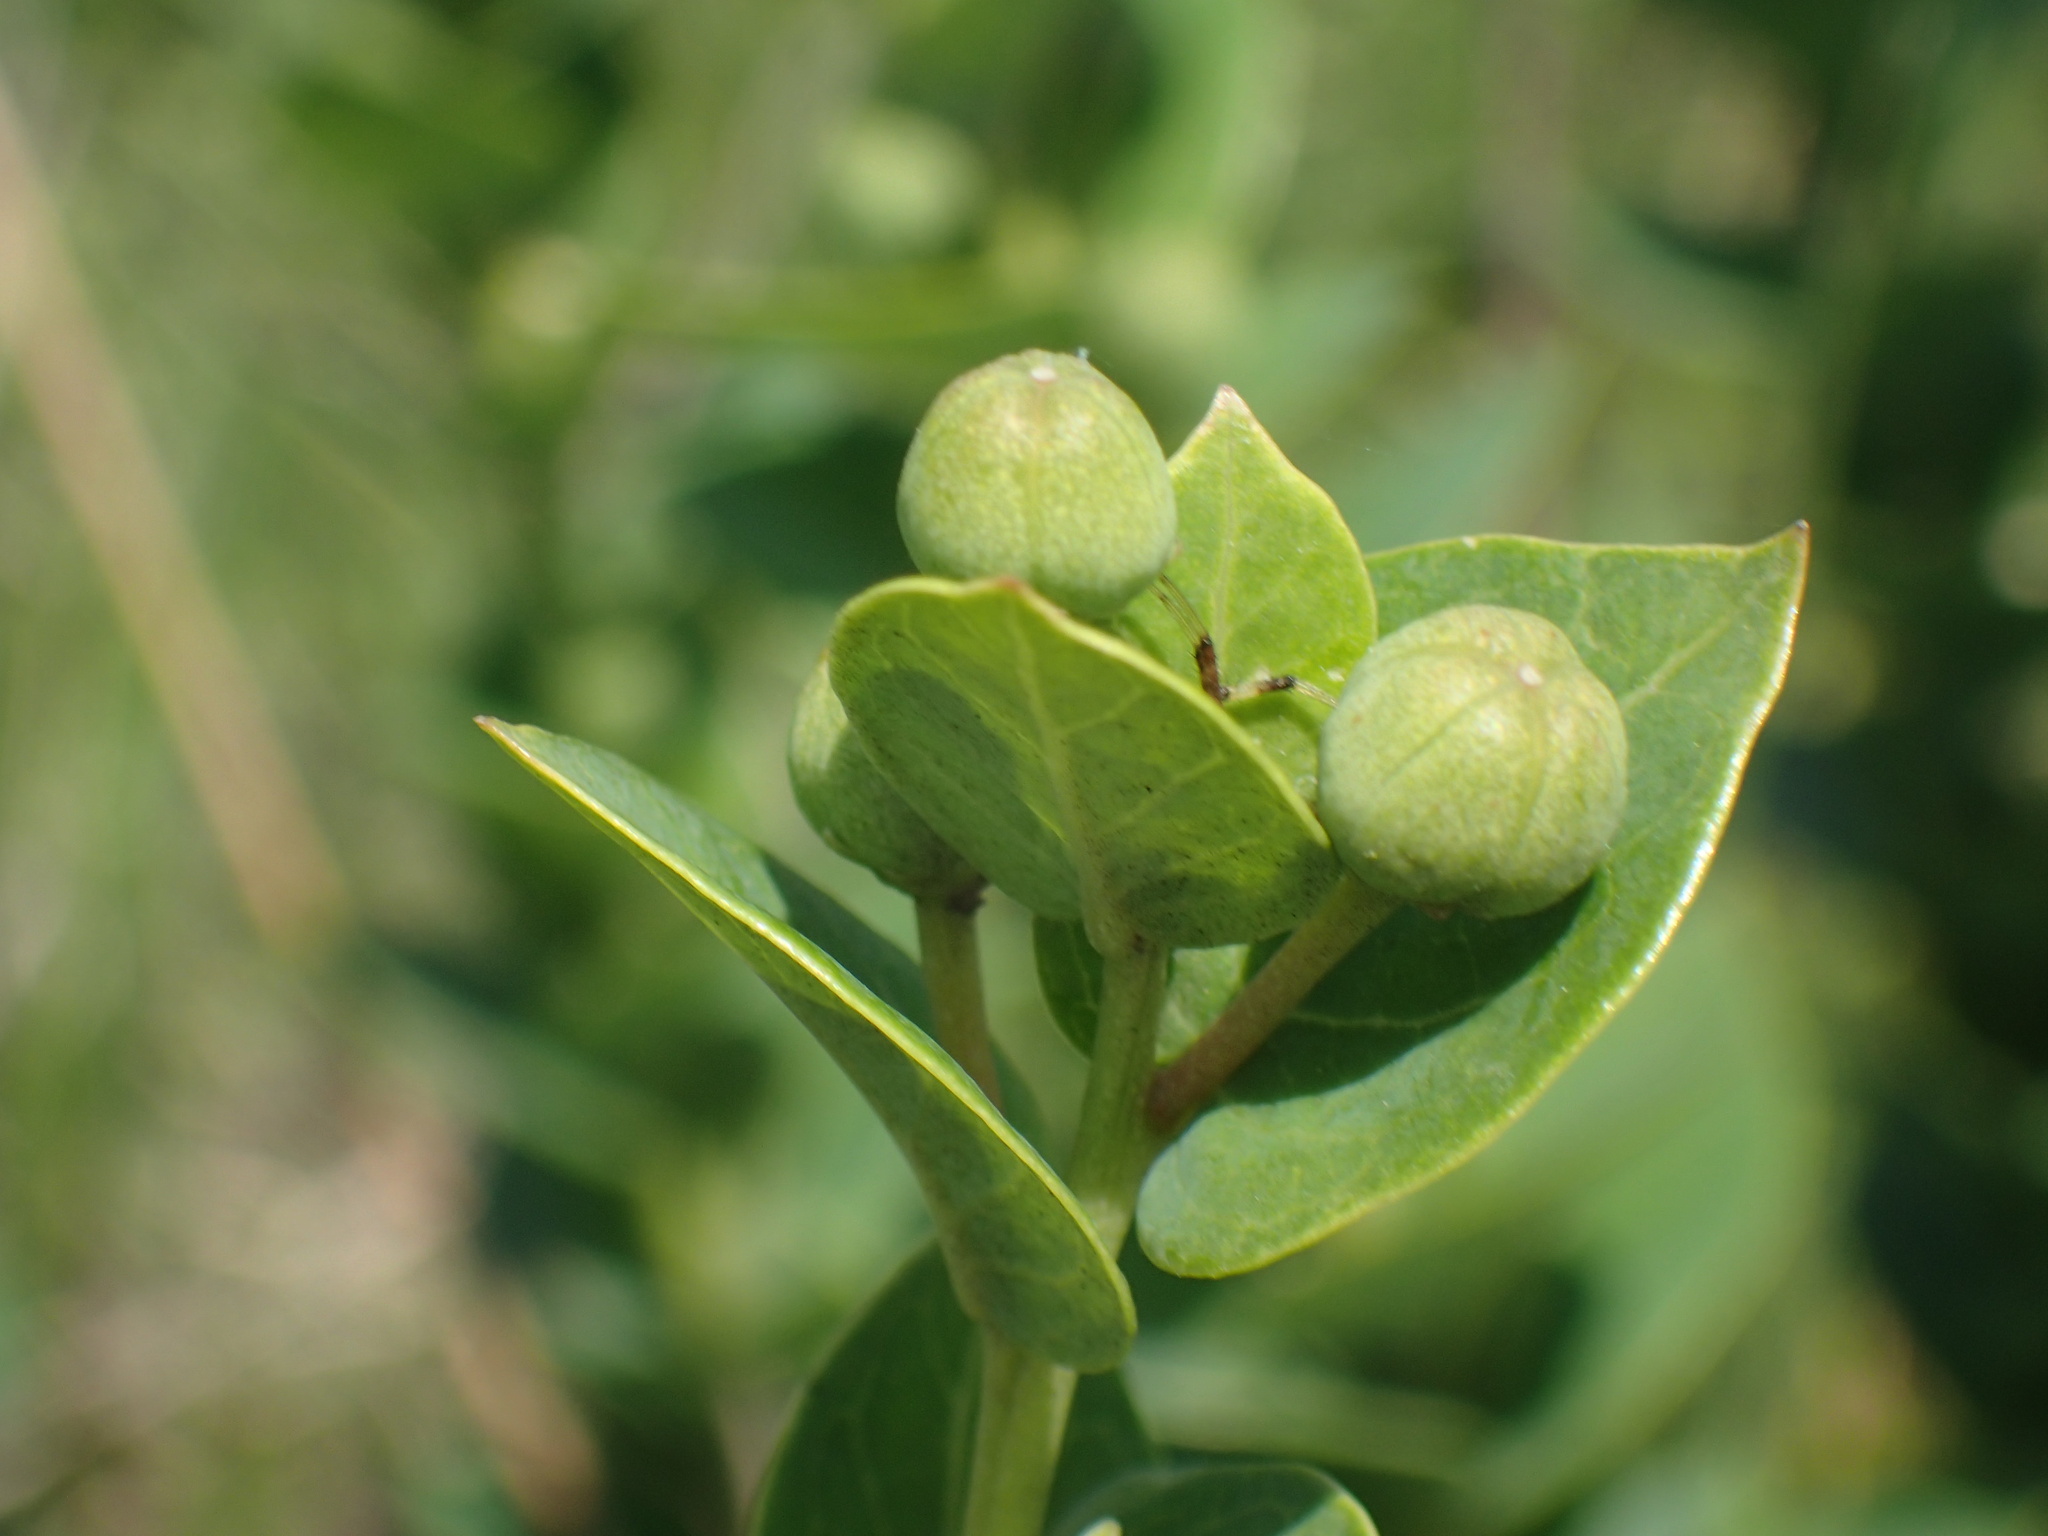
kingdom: Plantae
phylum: Tracheophyta
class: Magnoliopsida
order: Malpighiales
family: Peraceae
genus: Clutia
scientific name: Clutia cordata
